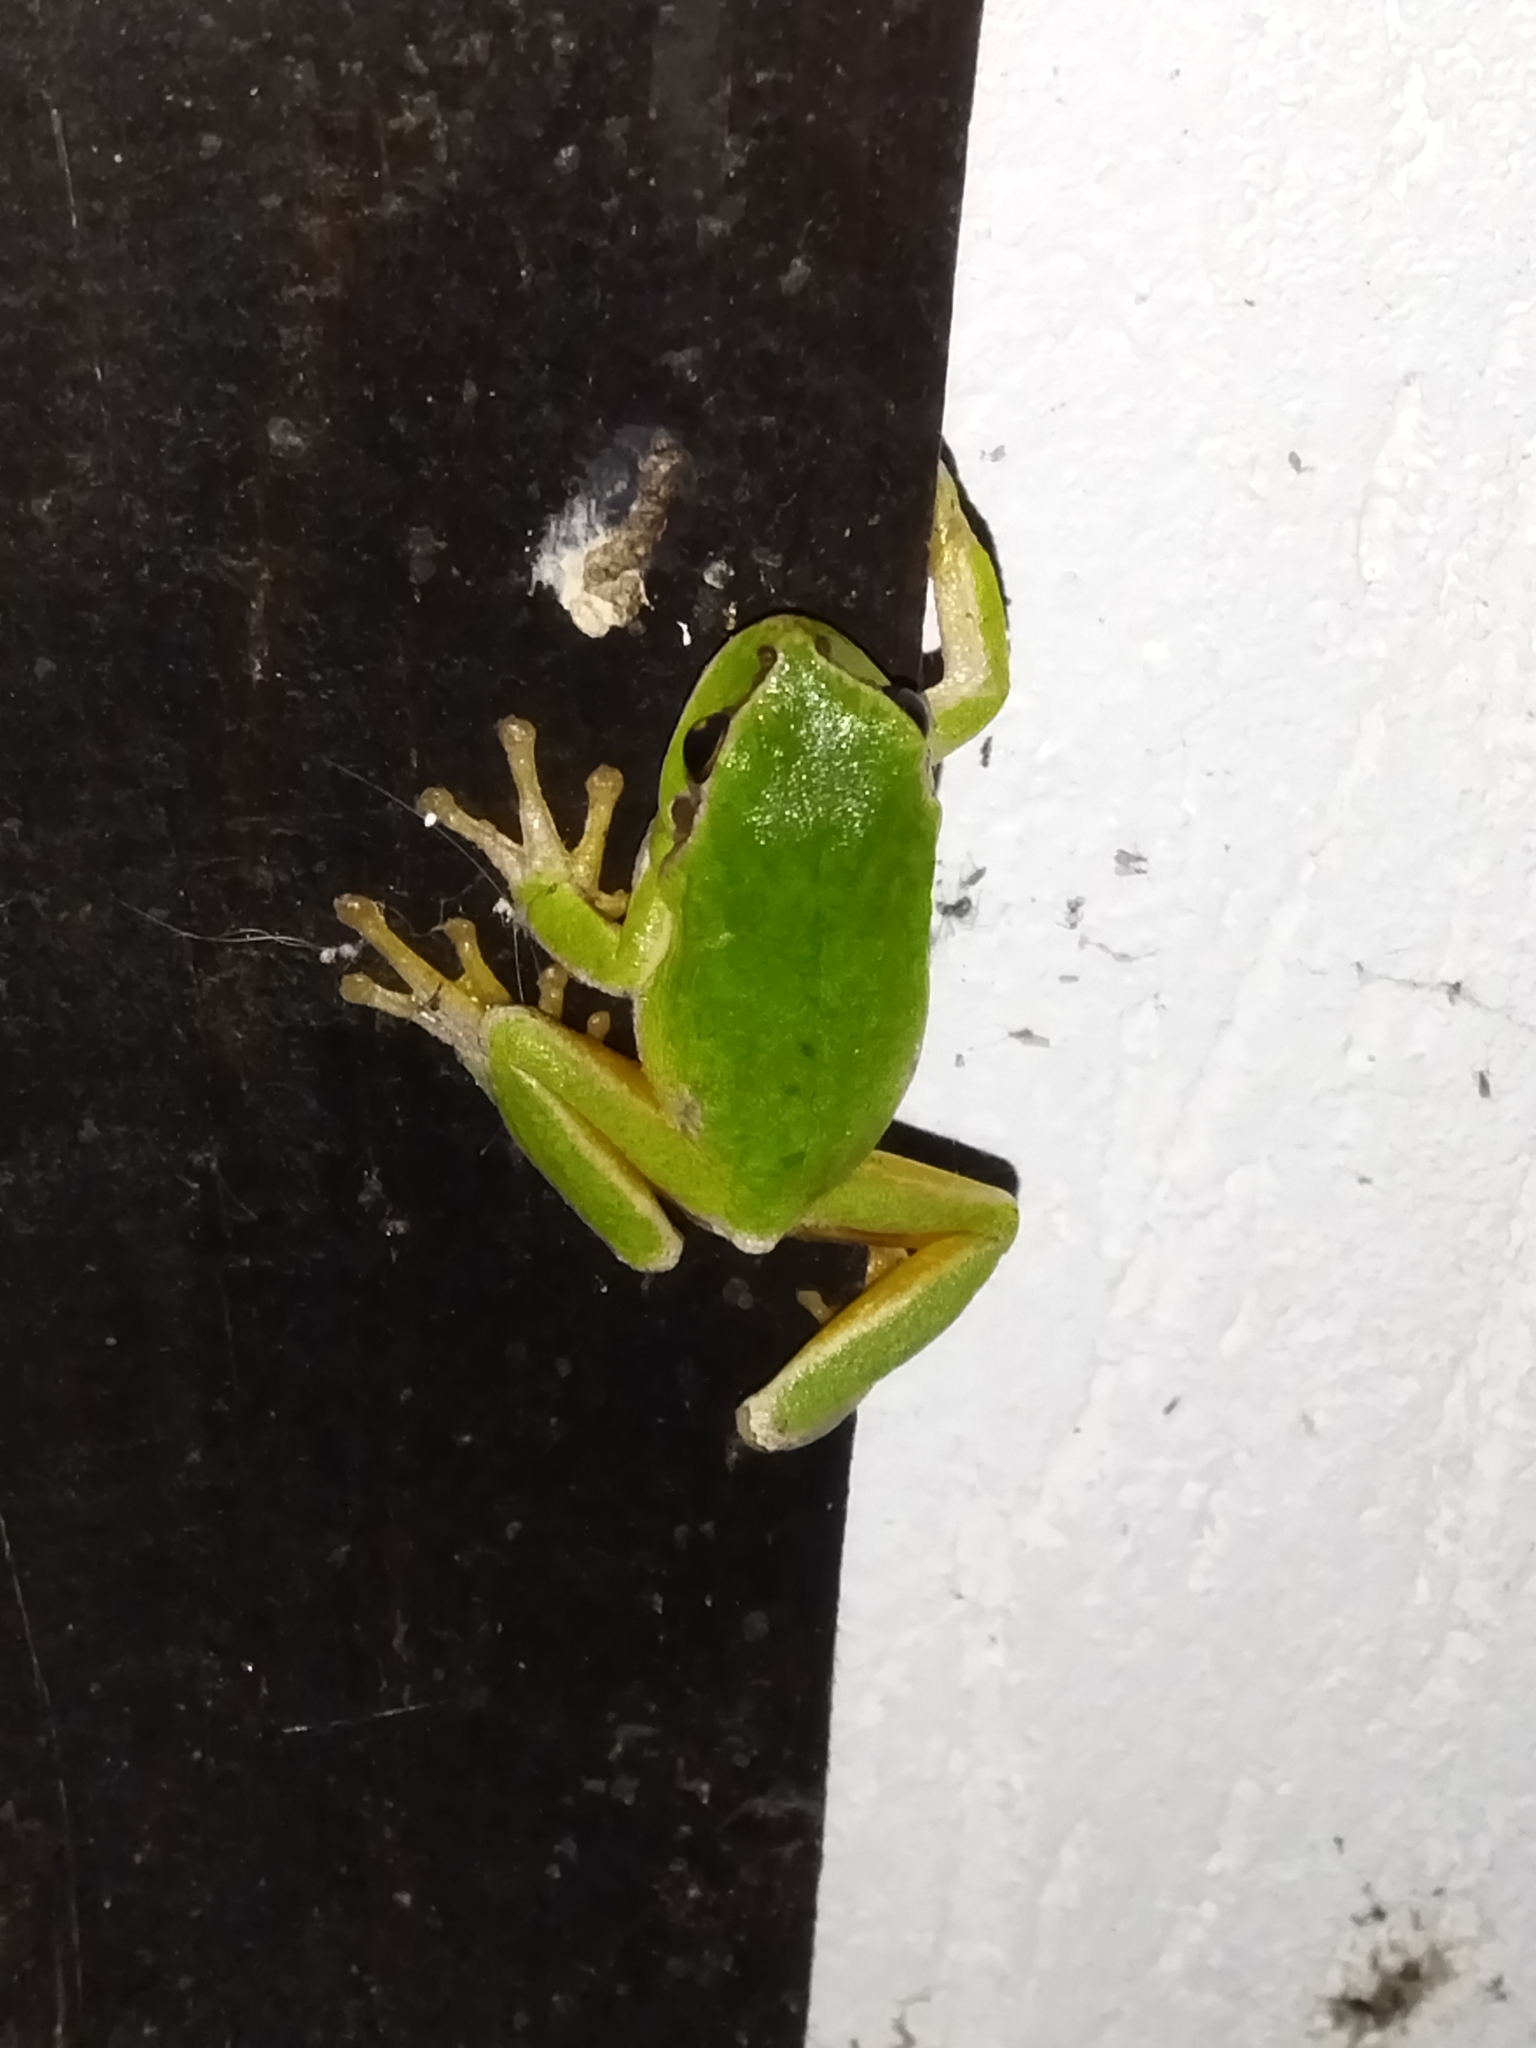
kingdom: Animalia
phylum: Chordata
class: Amphibia
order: Anura
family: Hylidae
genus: Hyla
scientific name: Hyla orientalis
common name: Caucasian treefrog
